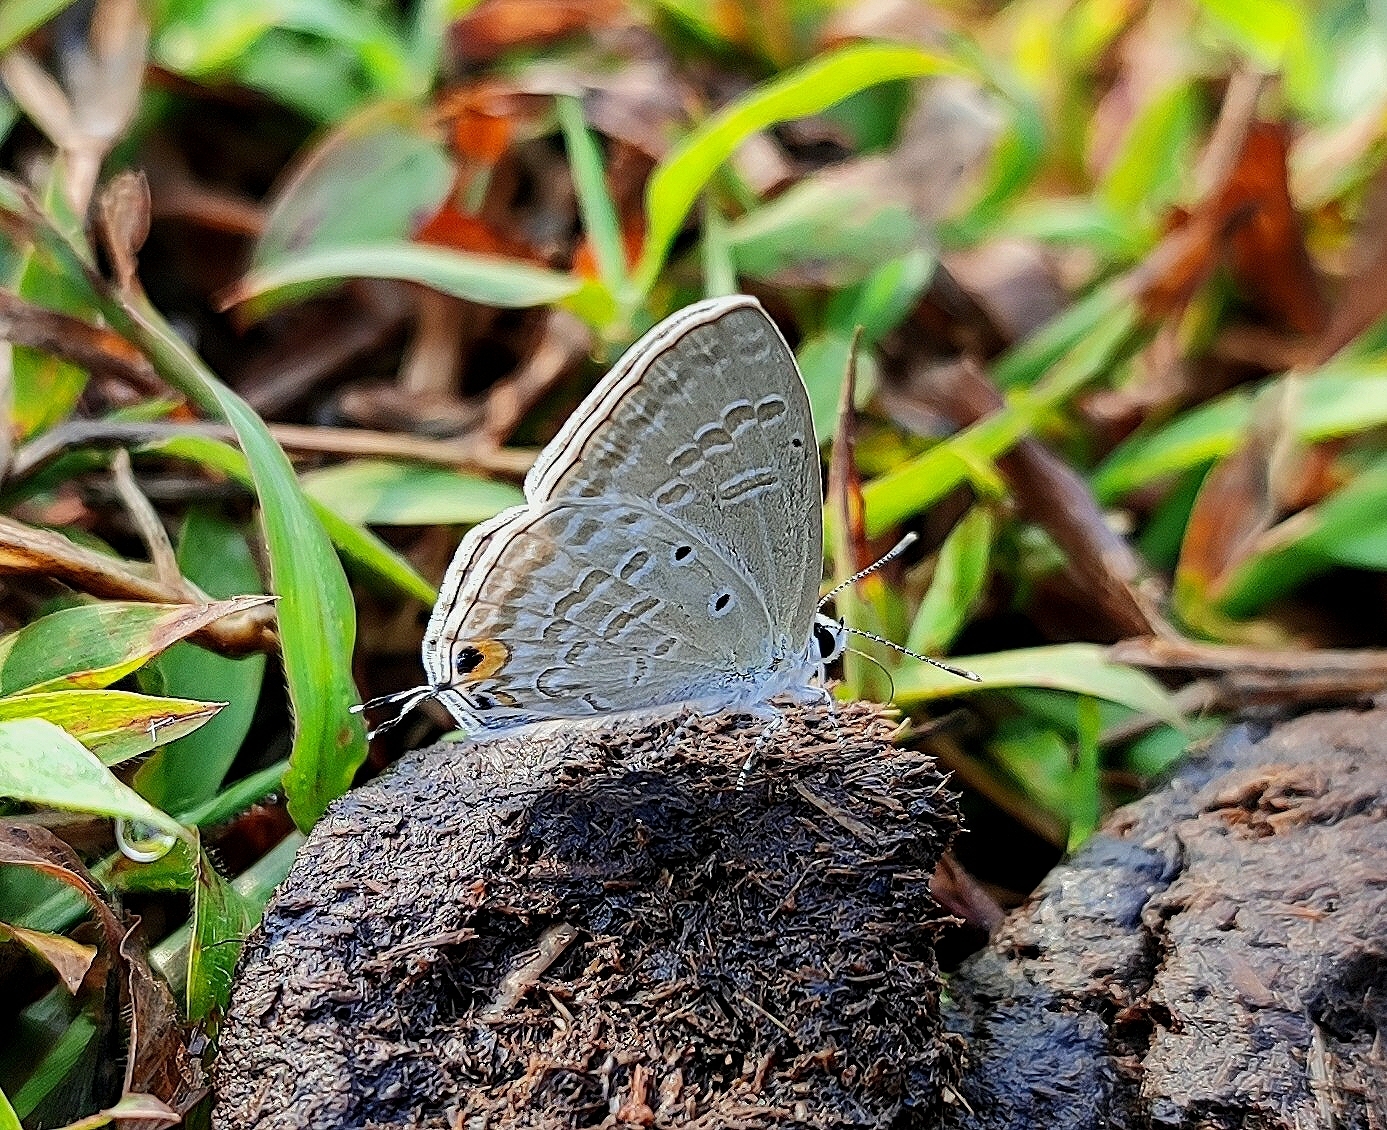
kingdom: Animalia
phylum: Arthropoda
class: Insecta
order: Lepidoptera
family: Lycaenidae
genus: Catochrysops
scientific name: Catochrysops strabo
